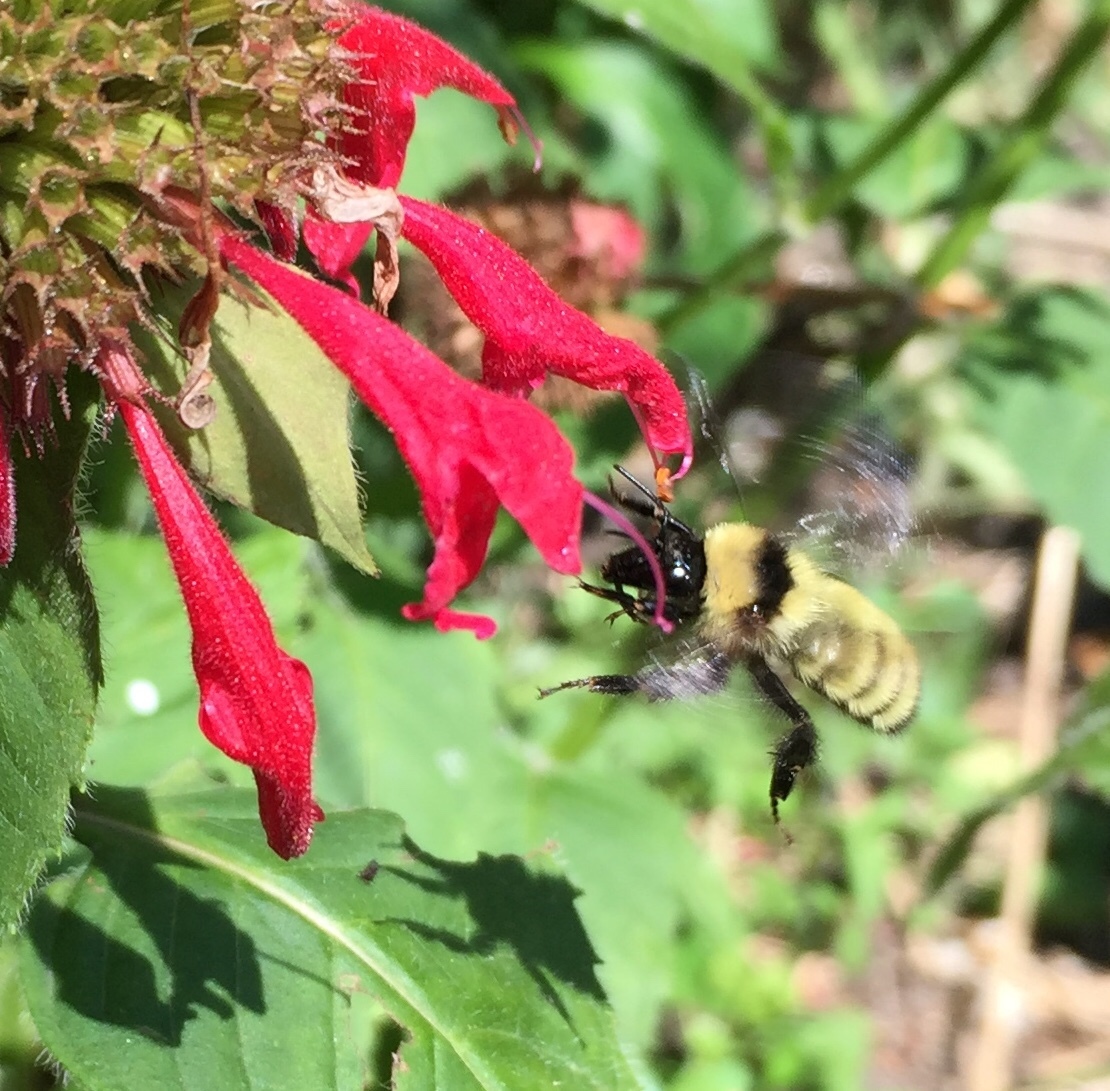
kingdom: Animalia
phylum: Arthropoda
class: Insecta
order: Hymenoptera
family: Apidae
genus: Bombus
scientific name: Bombus fervidus
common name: Yellow bumble bee
